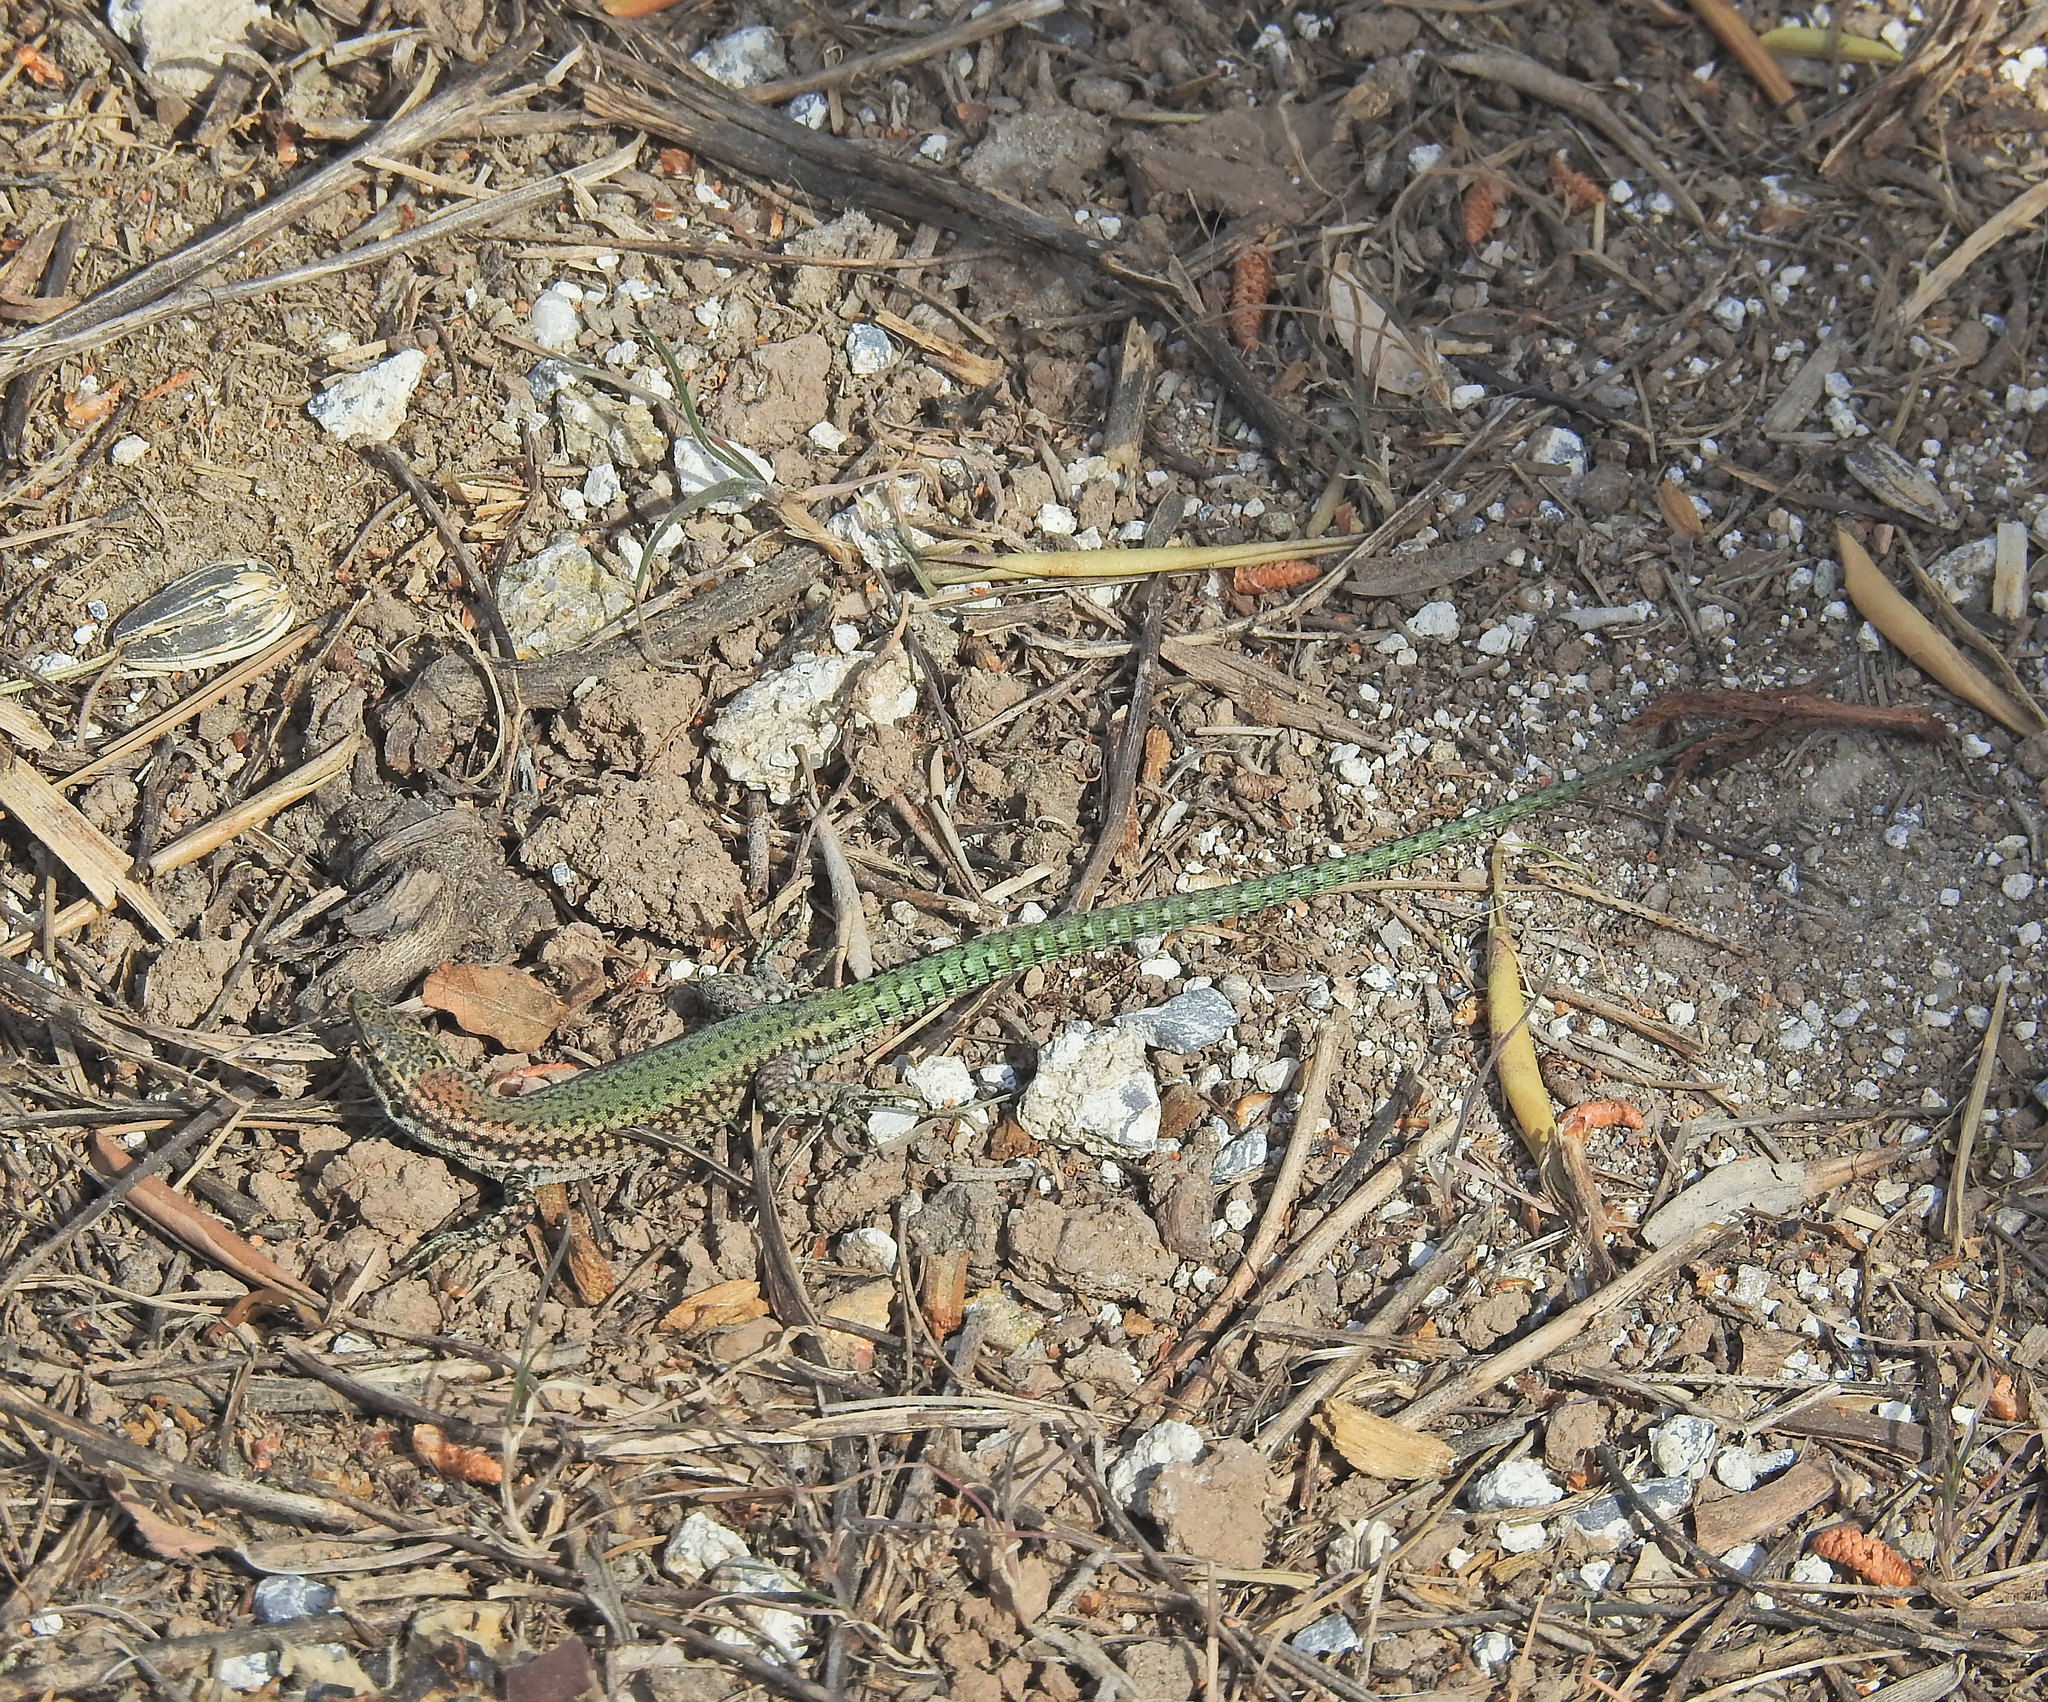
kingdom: Animalia
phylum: Chordata
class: Squamata
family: Lacertidae
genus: Podarcis
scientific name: Podarcis vaucheri
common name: Vaucher's wall lizard
